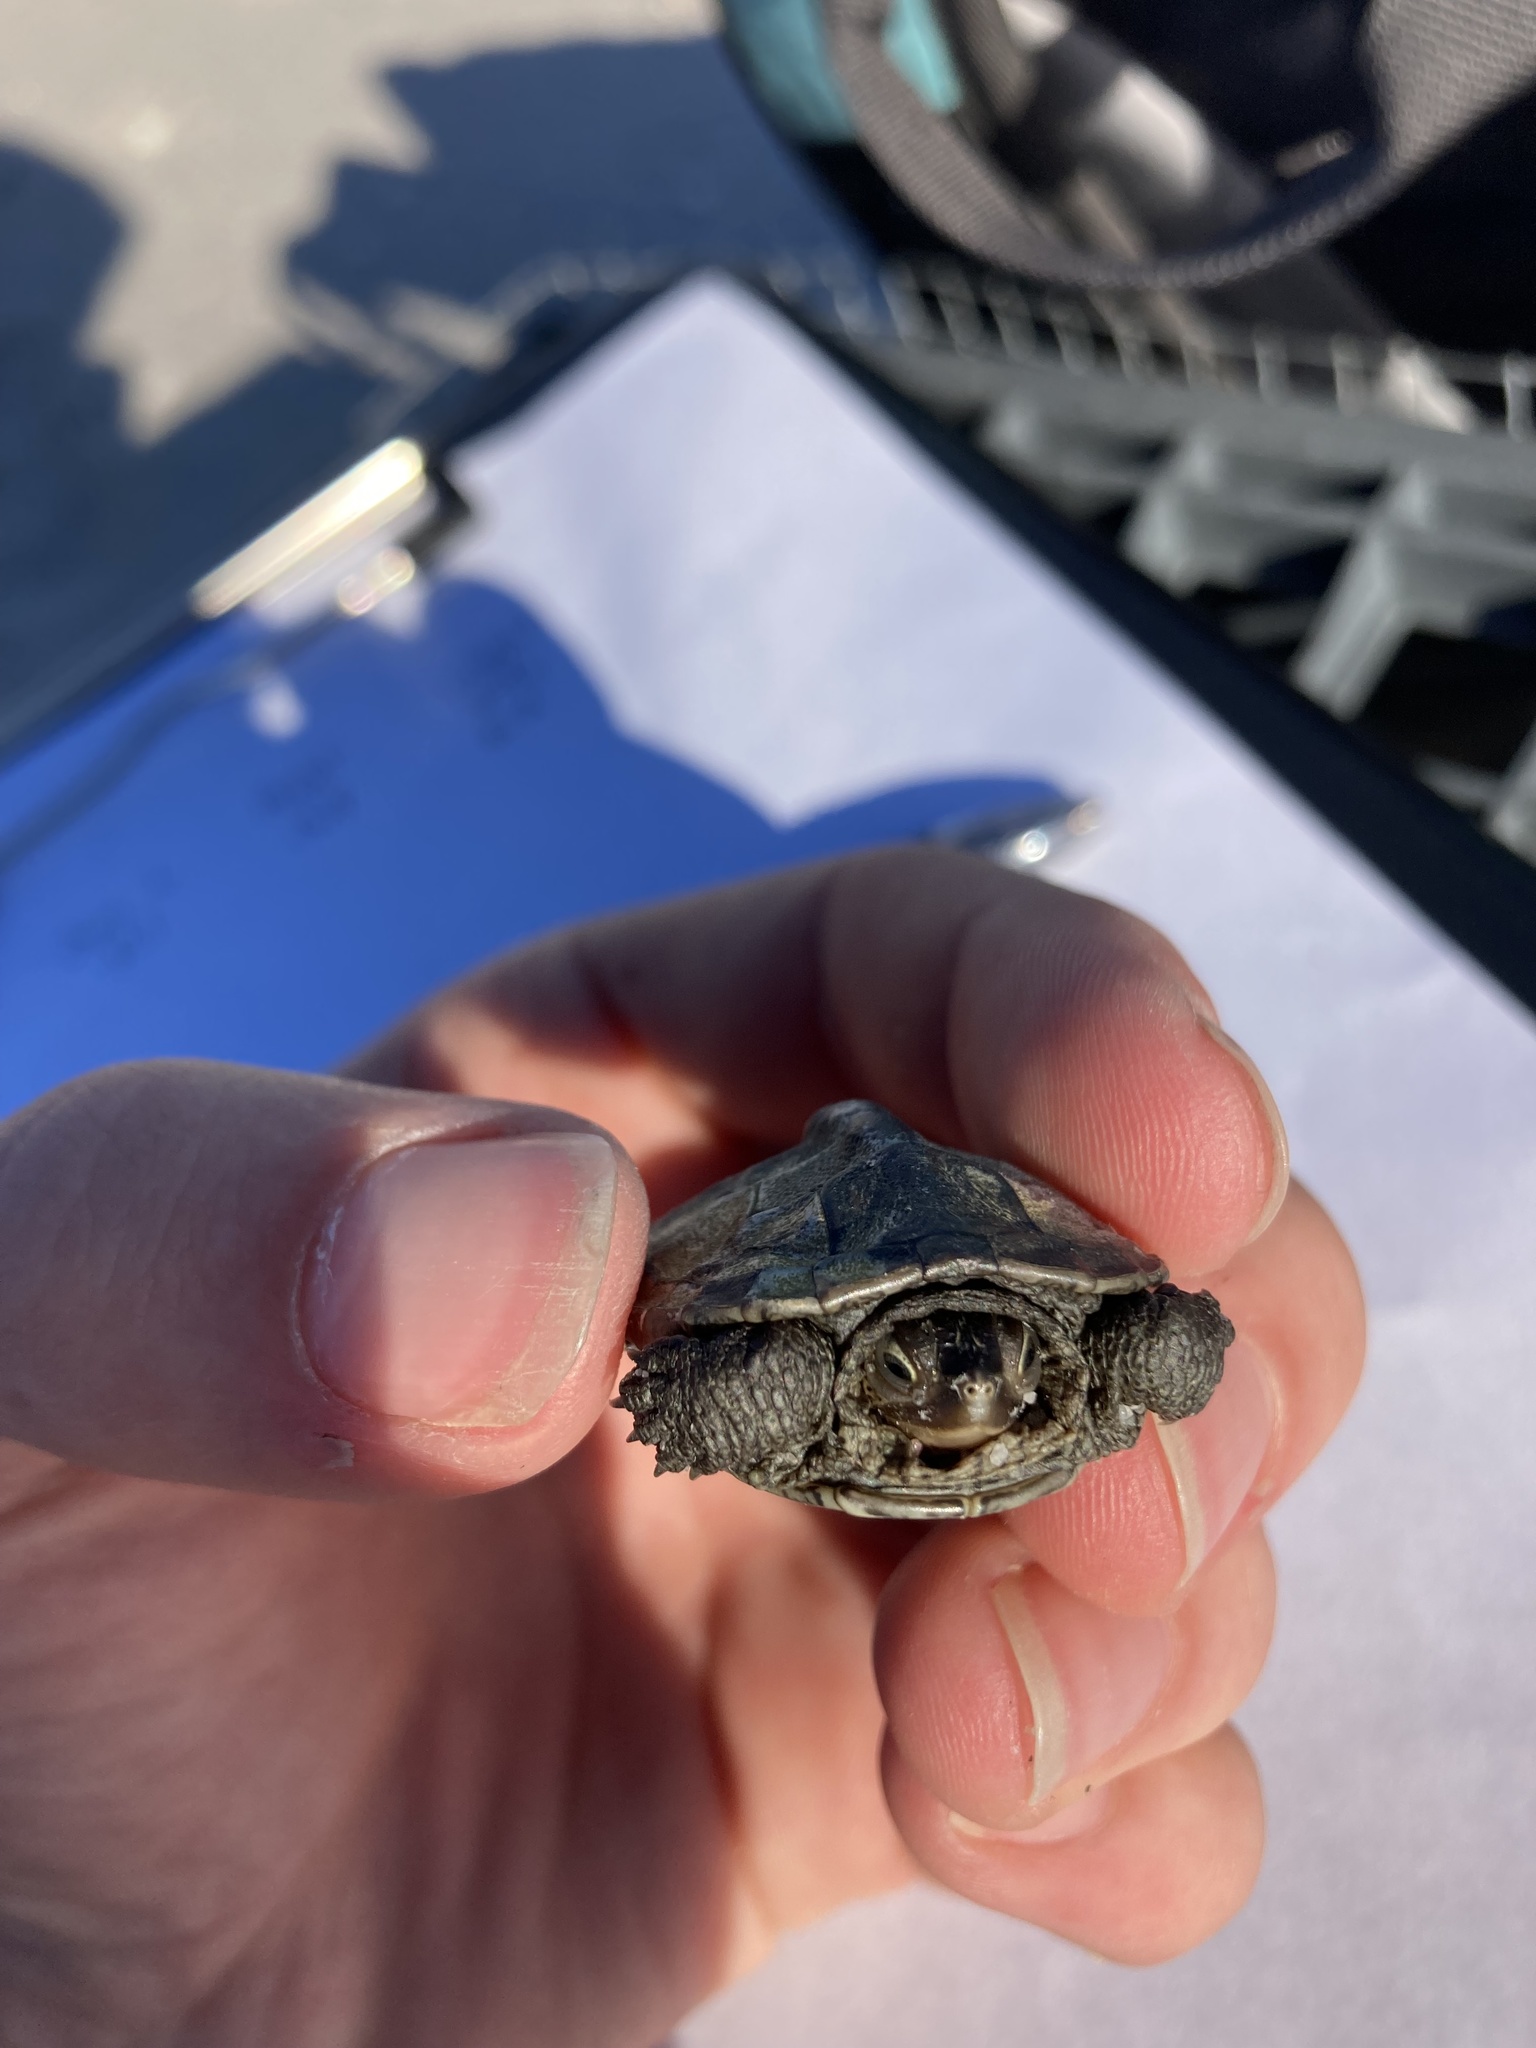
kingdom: Animalia
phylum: Chordata
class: Testudines
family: Emydidae
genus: Malaclemys
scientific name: Malaclemys terrapin
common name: Diamondback terrapin
